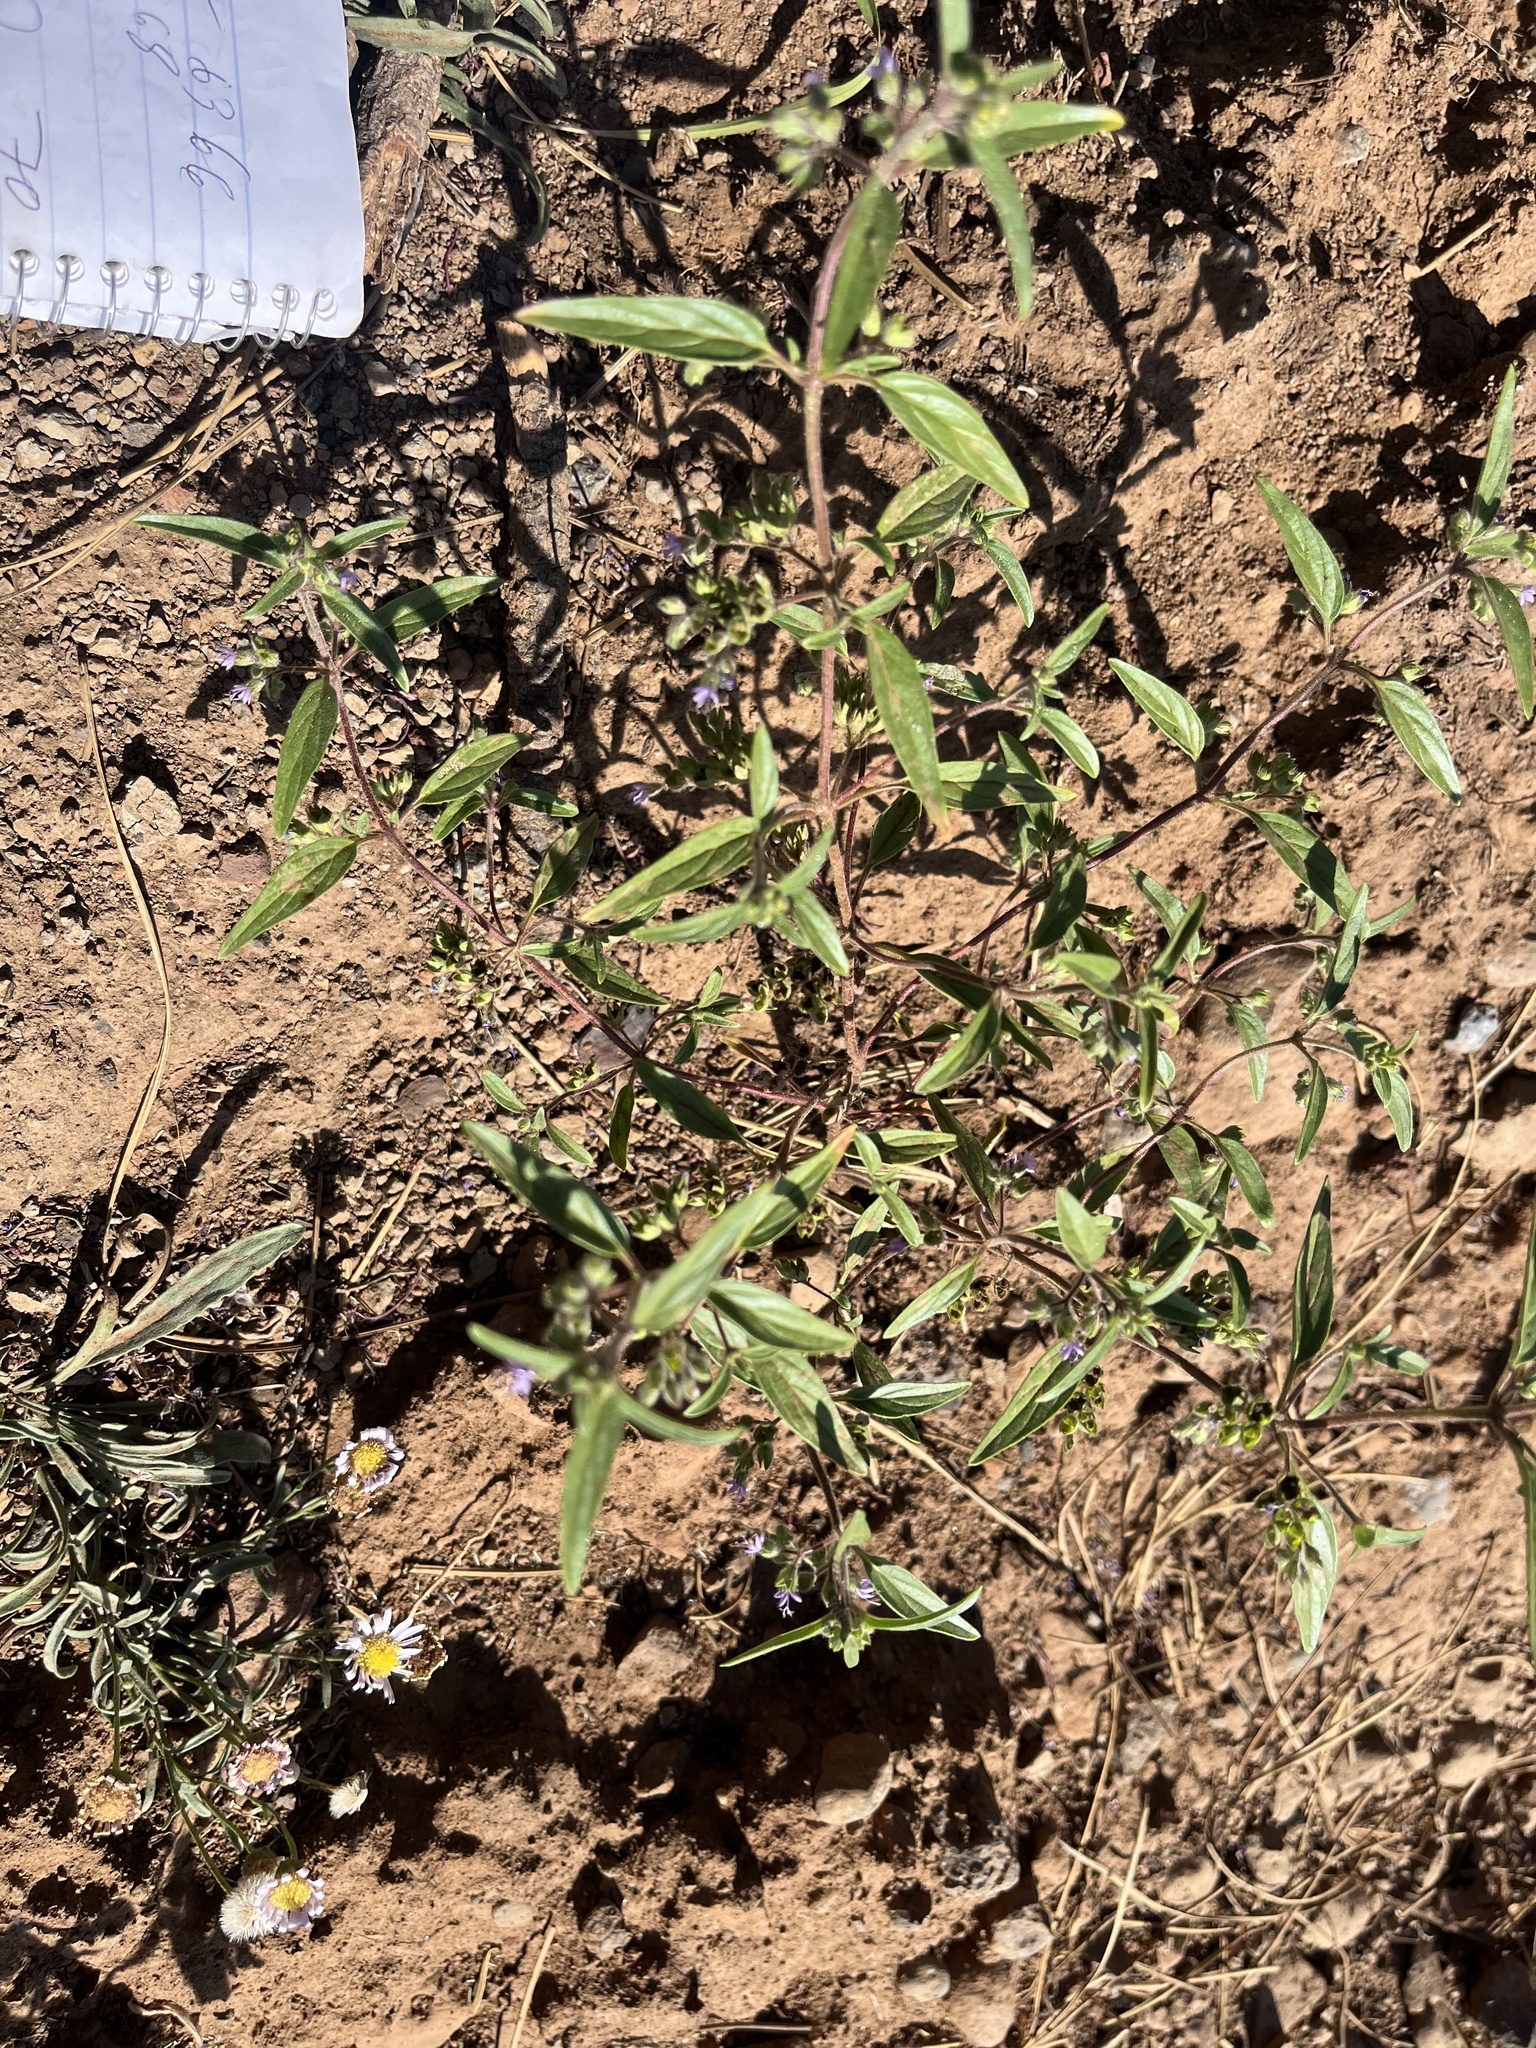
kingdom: Plantae
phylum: Tracheophyta
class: Magnoliopsida
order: Lamiales
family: Lamiaceae
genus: Trichostema
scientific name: Trichostema simulatum
